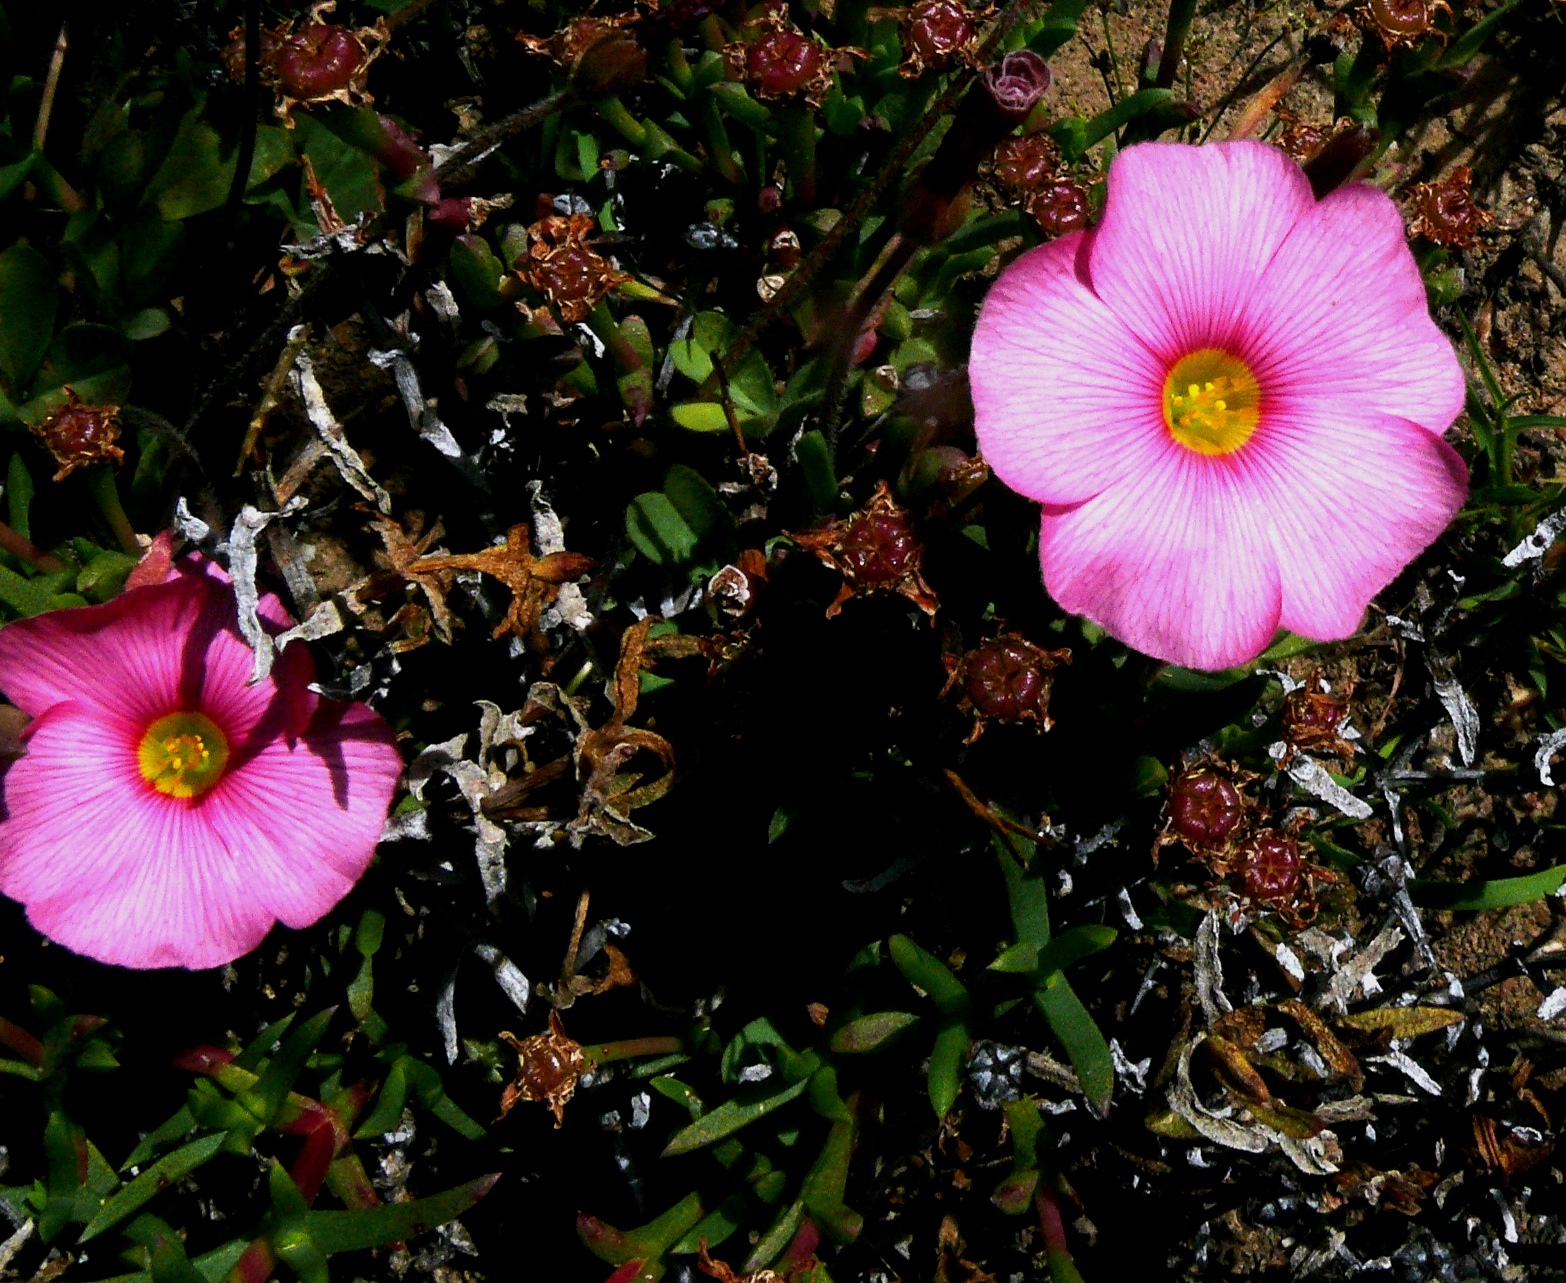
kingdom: Plantae
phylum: Tracheophyta
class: Magnoliopsida
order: Oxalidales
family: Oxalidaceae
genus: Oxalis
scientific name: Oxalis obtusa
